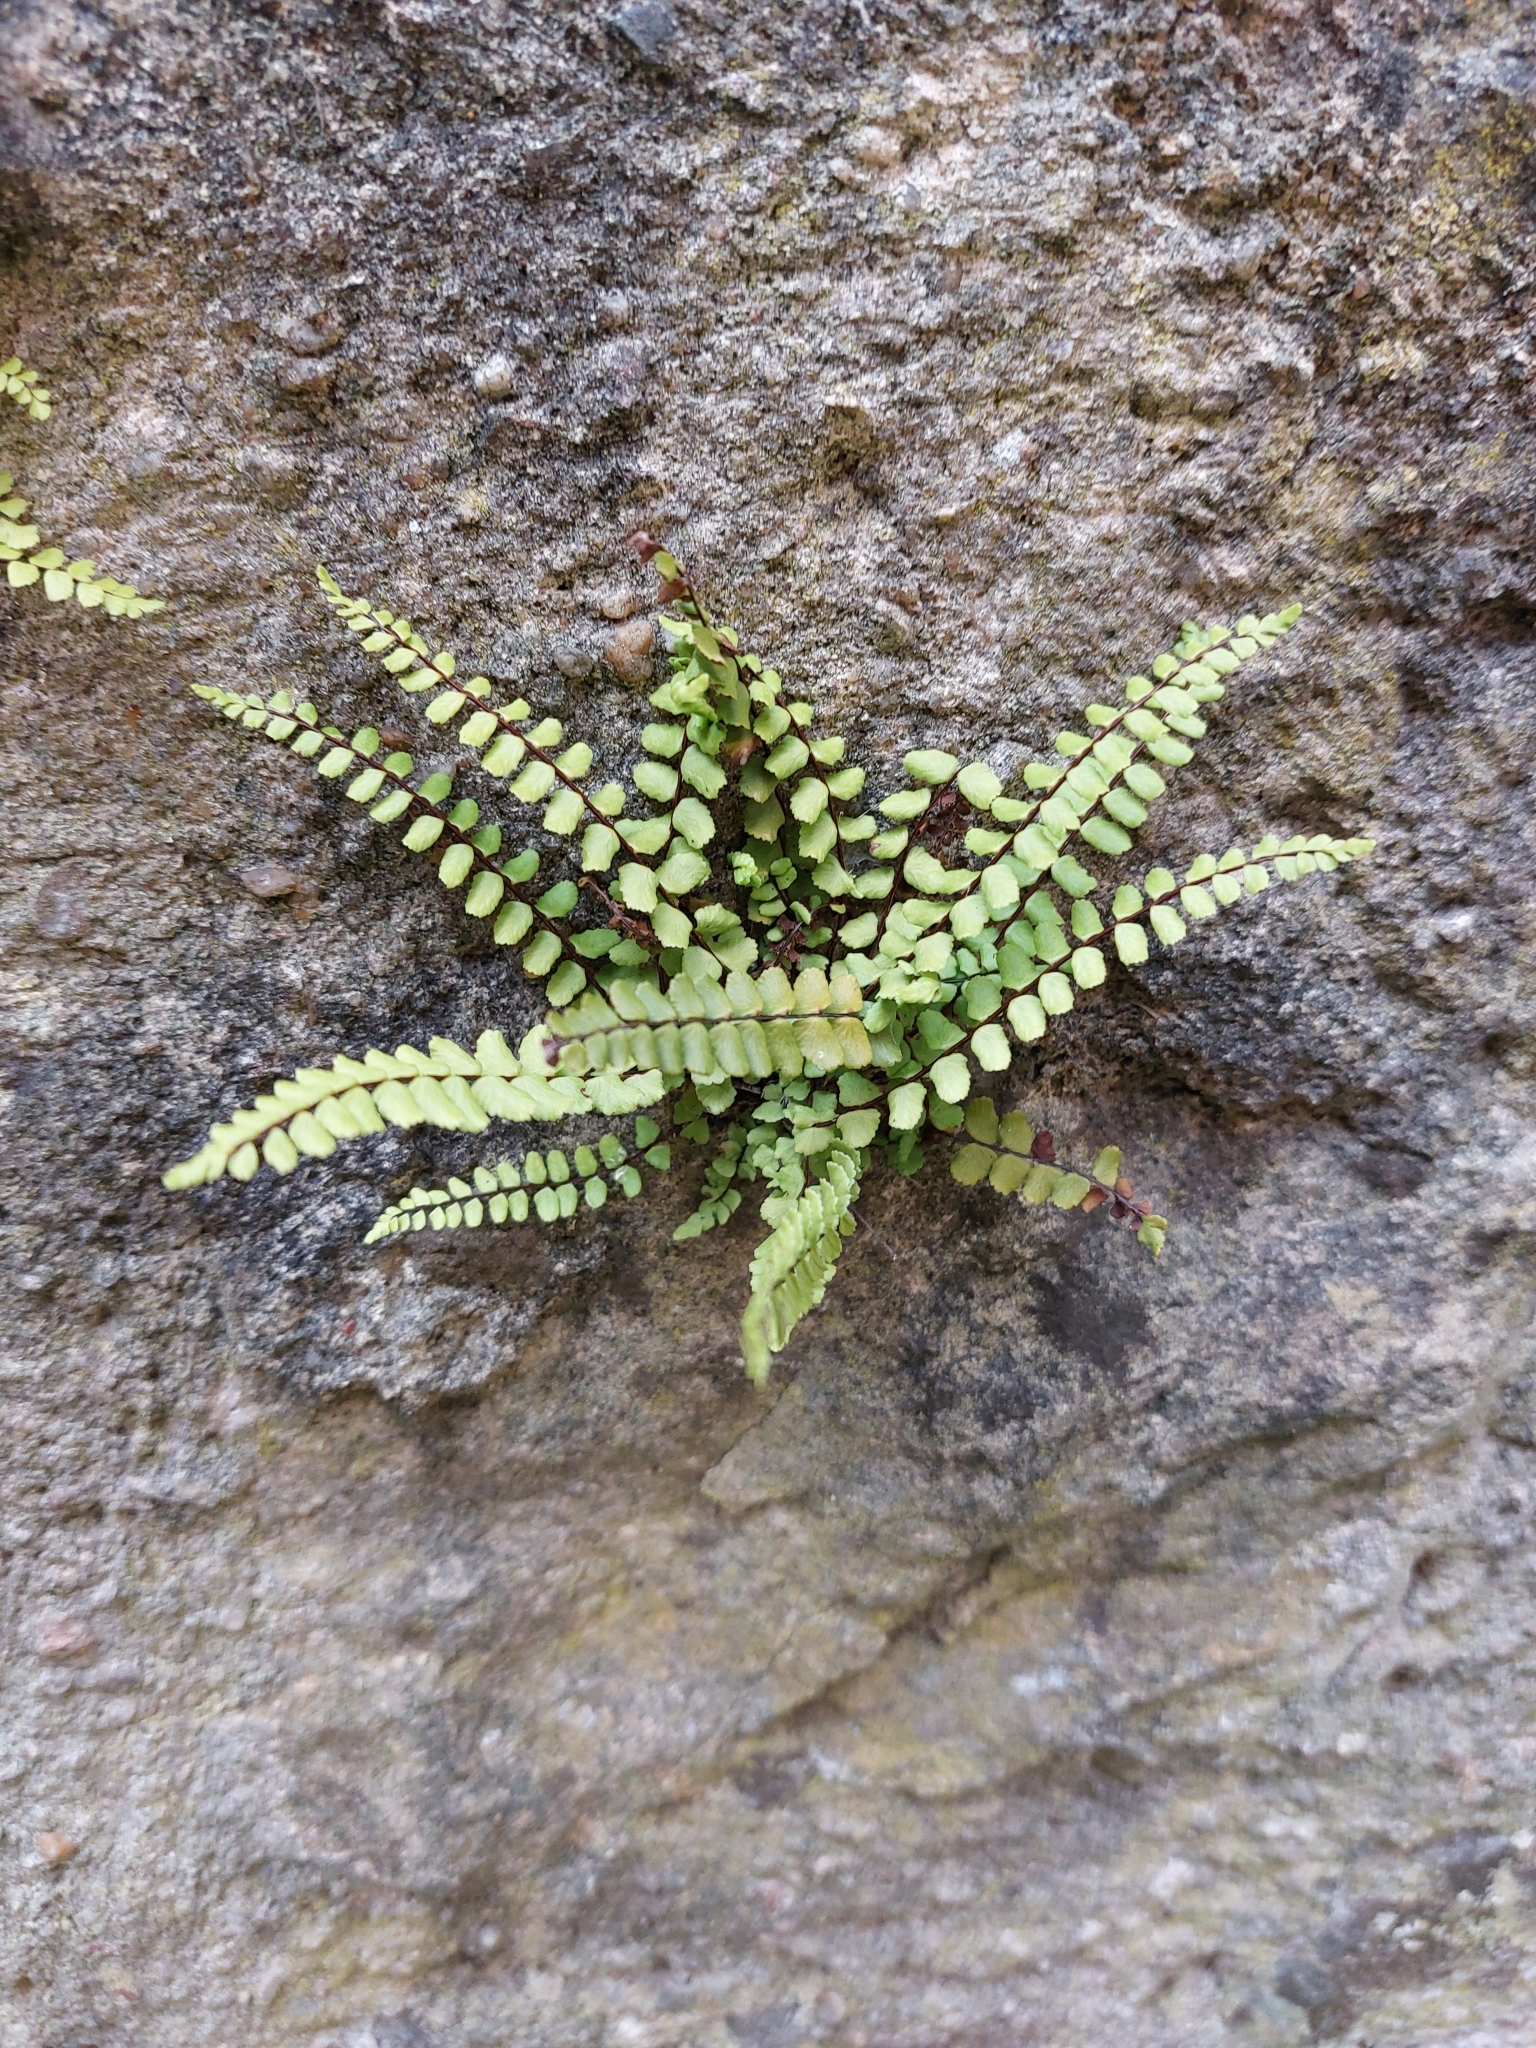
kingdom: Plantae
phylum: Tracheophyta
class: Polypodiopsida
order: Polypodiales
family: Aspleniaceae
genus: Asplenium
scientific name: Asplenium trichomanes
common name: Maidenhair spleenwort
